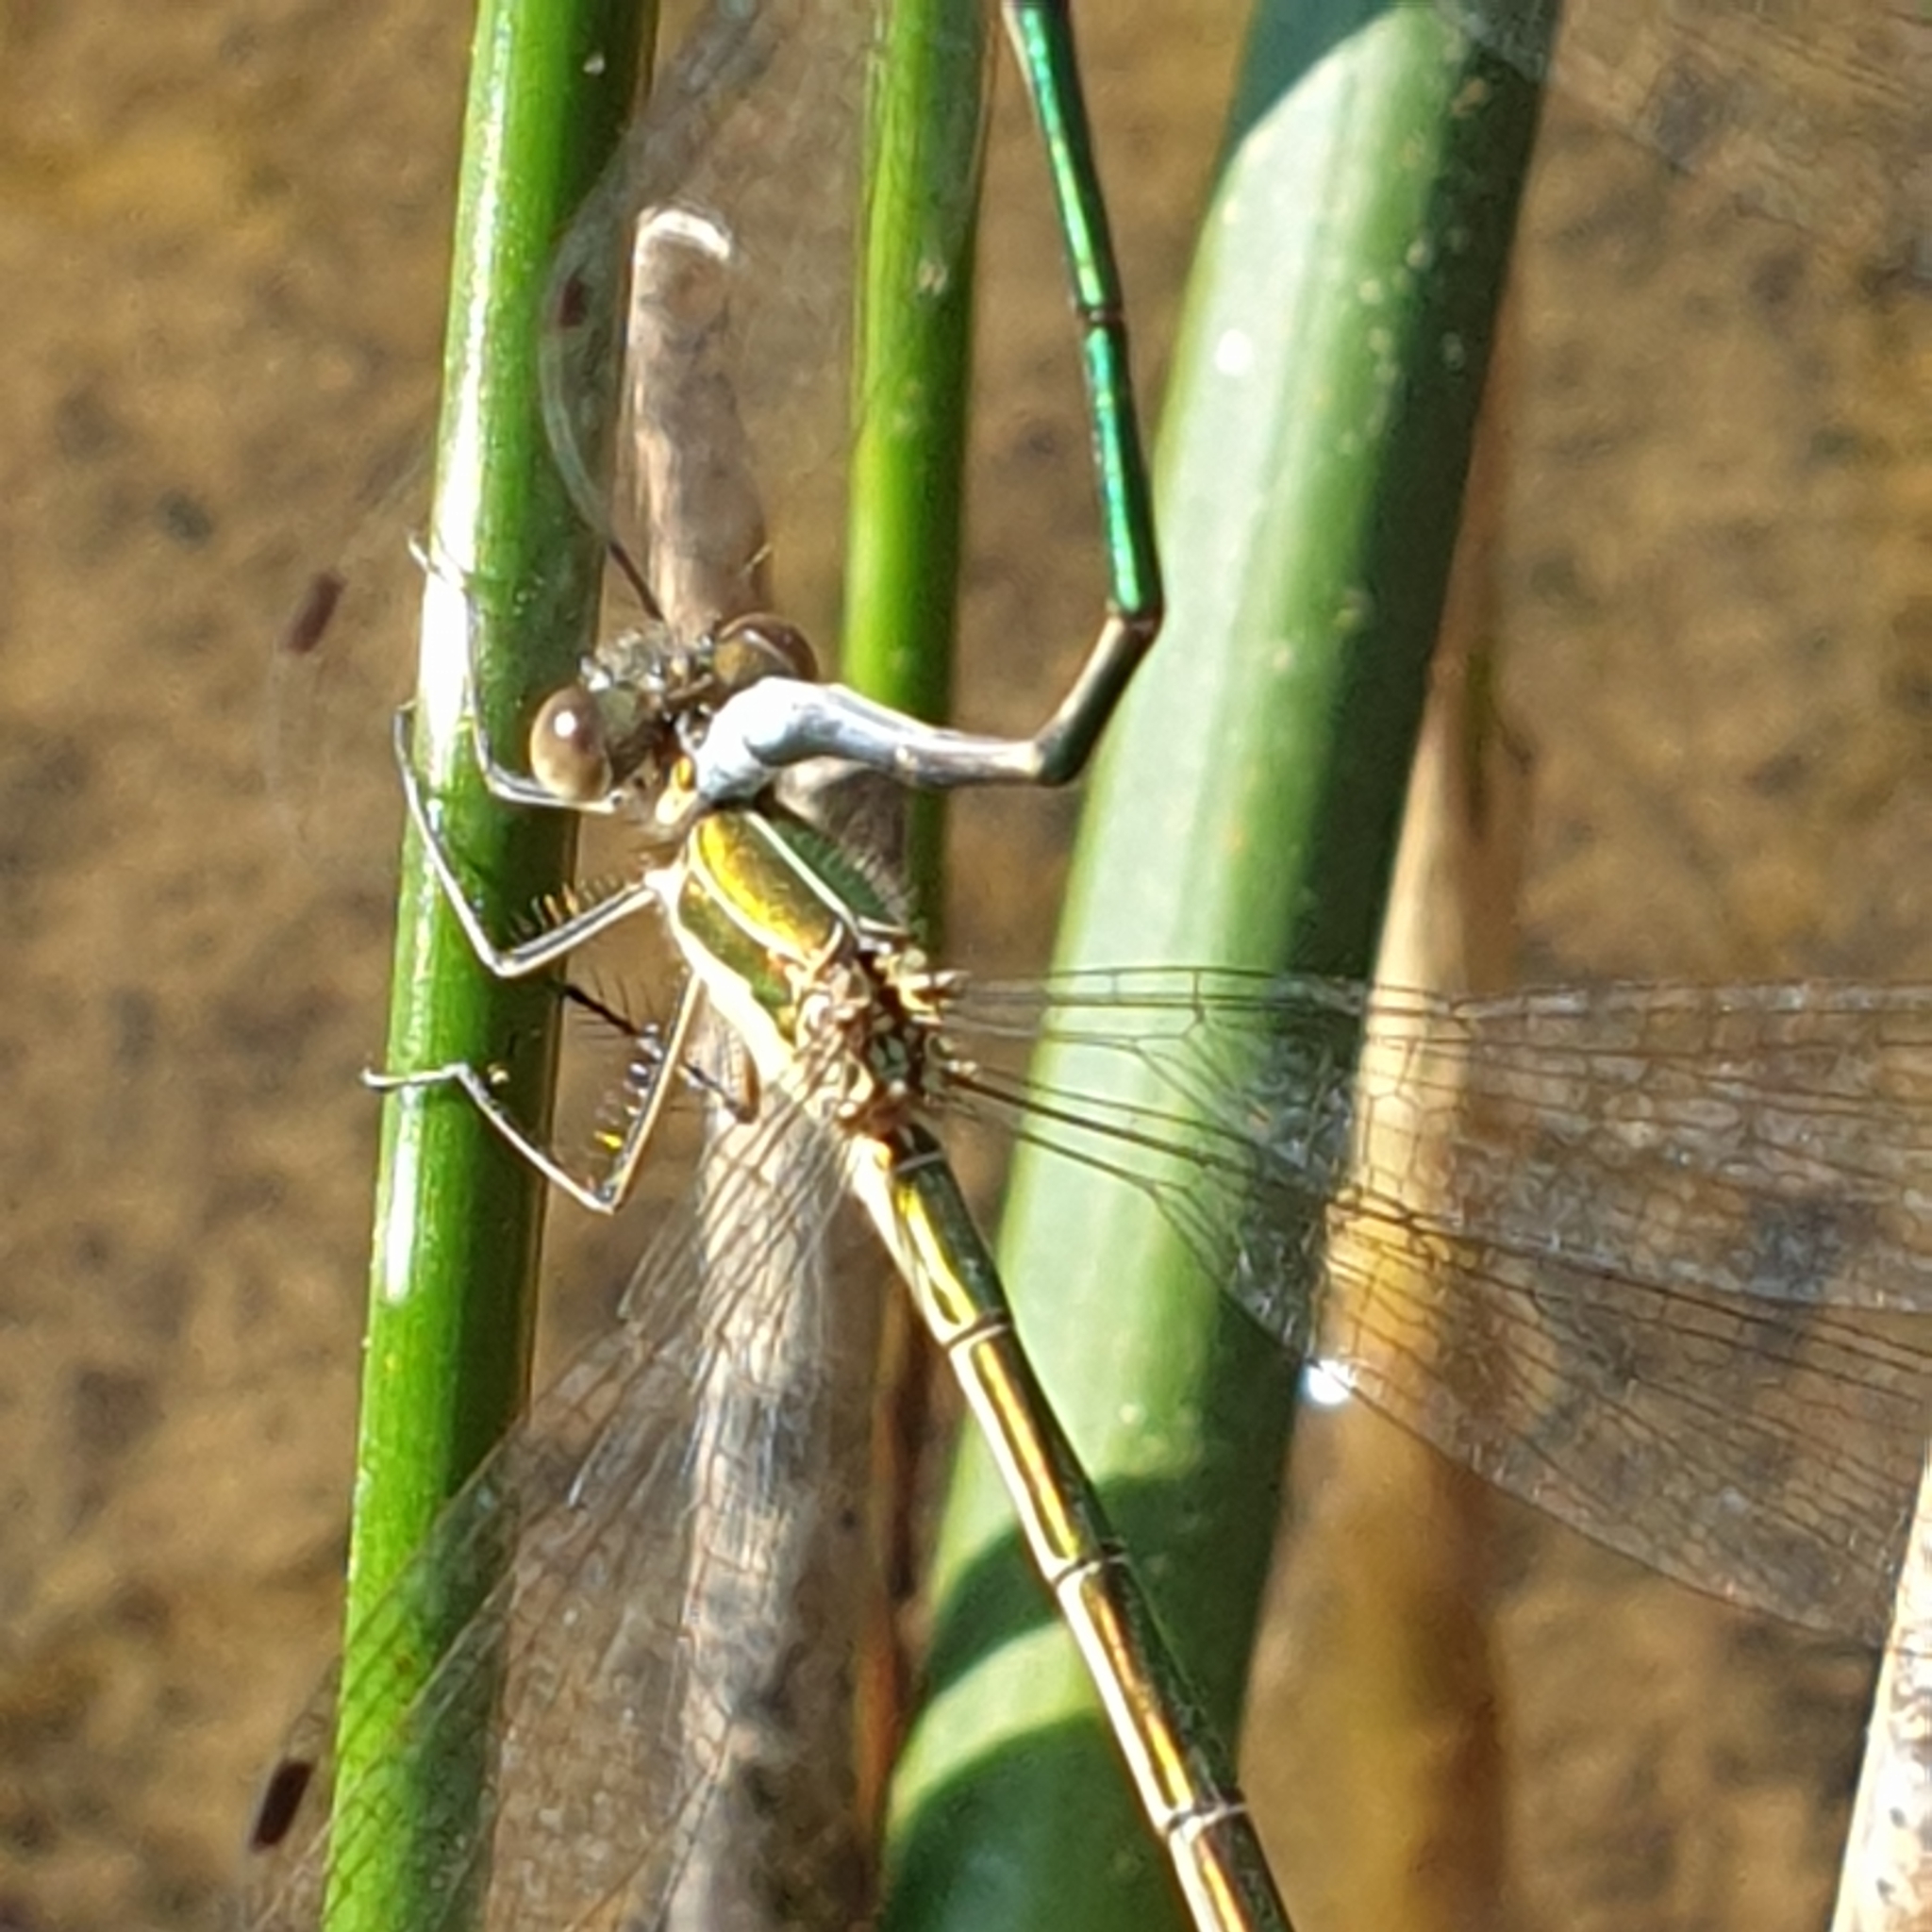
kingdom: Animalia
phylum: Arthropoda
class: Insecta
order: Odonata
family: Lestidae
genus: Lestes
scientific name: Lestes sponsa
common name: Common spreadwing
